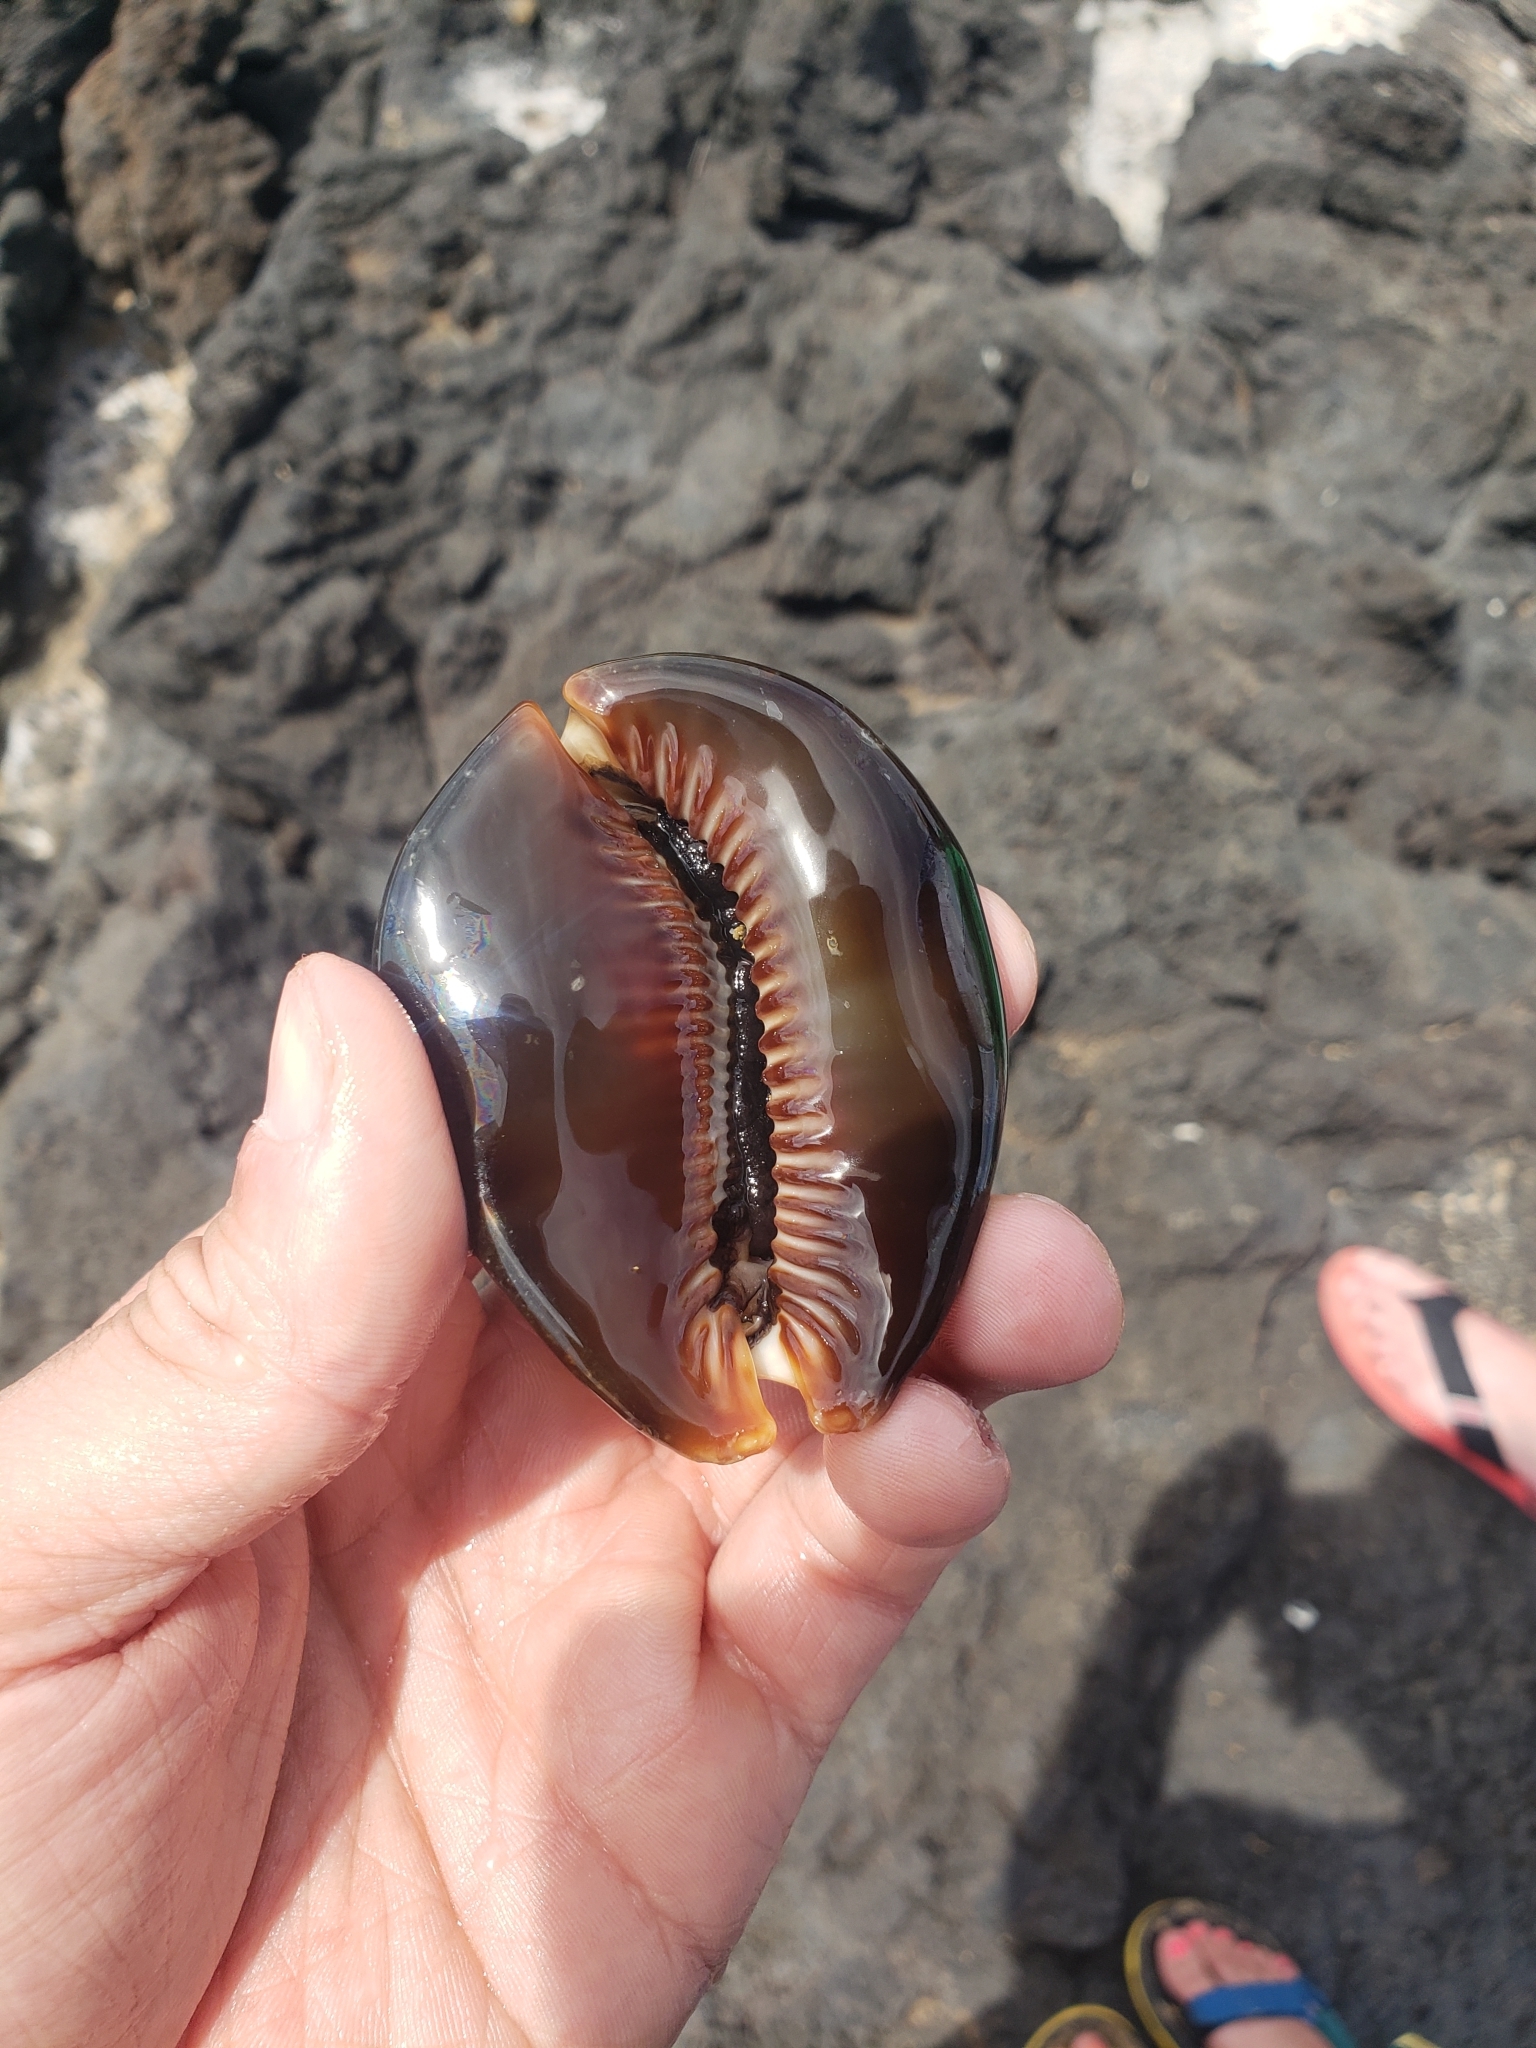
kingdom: Animalia
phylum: Mollusca
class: Gastropoda
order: Littorinimorpha
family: Cypraeidae
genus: Mauritia
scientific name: Mauritia mauritiana
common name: Hump-backed cowrie
